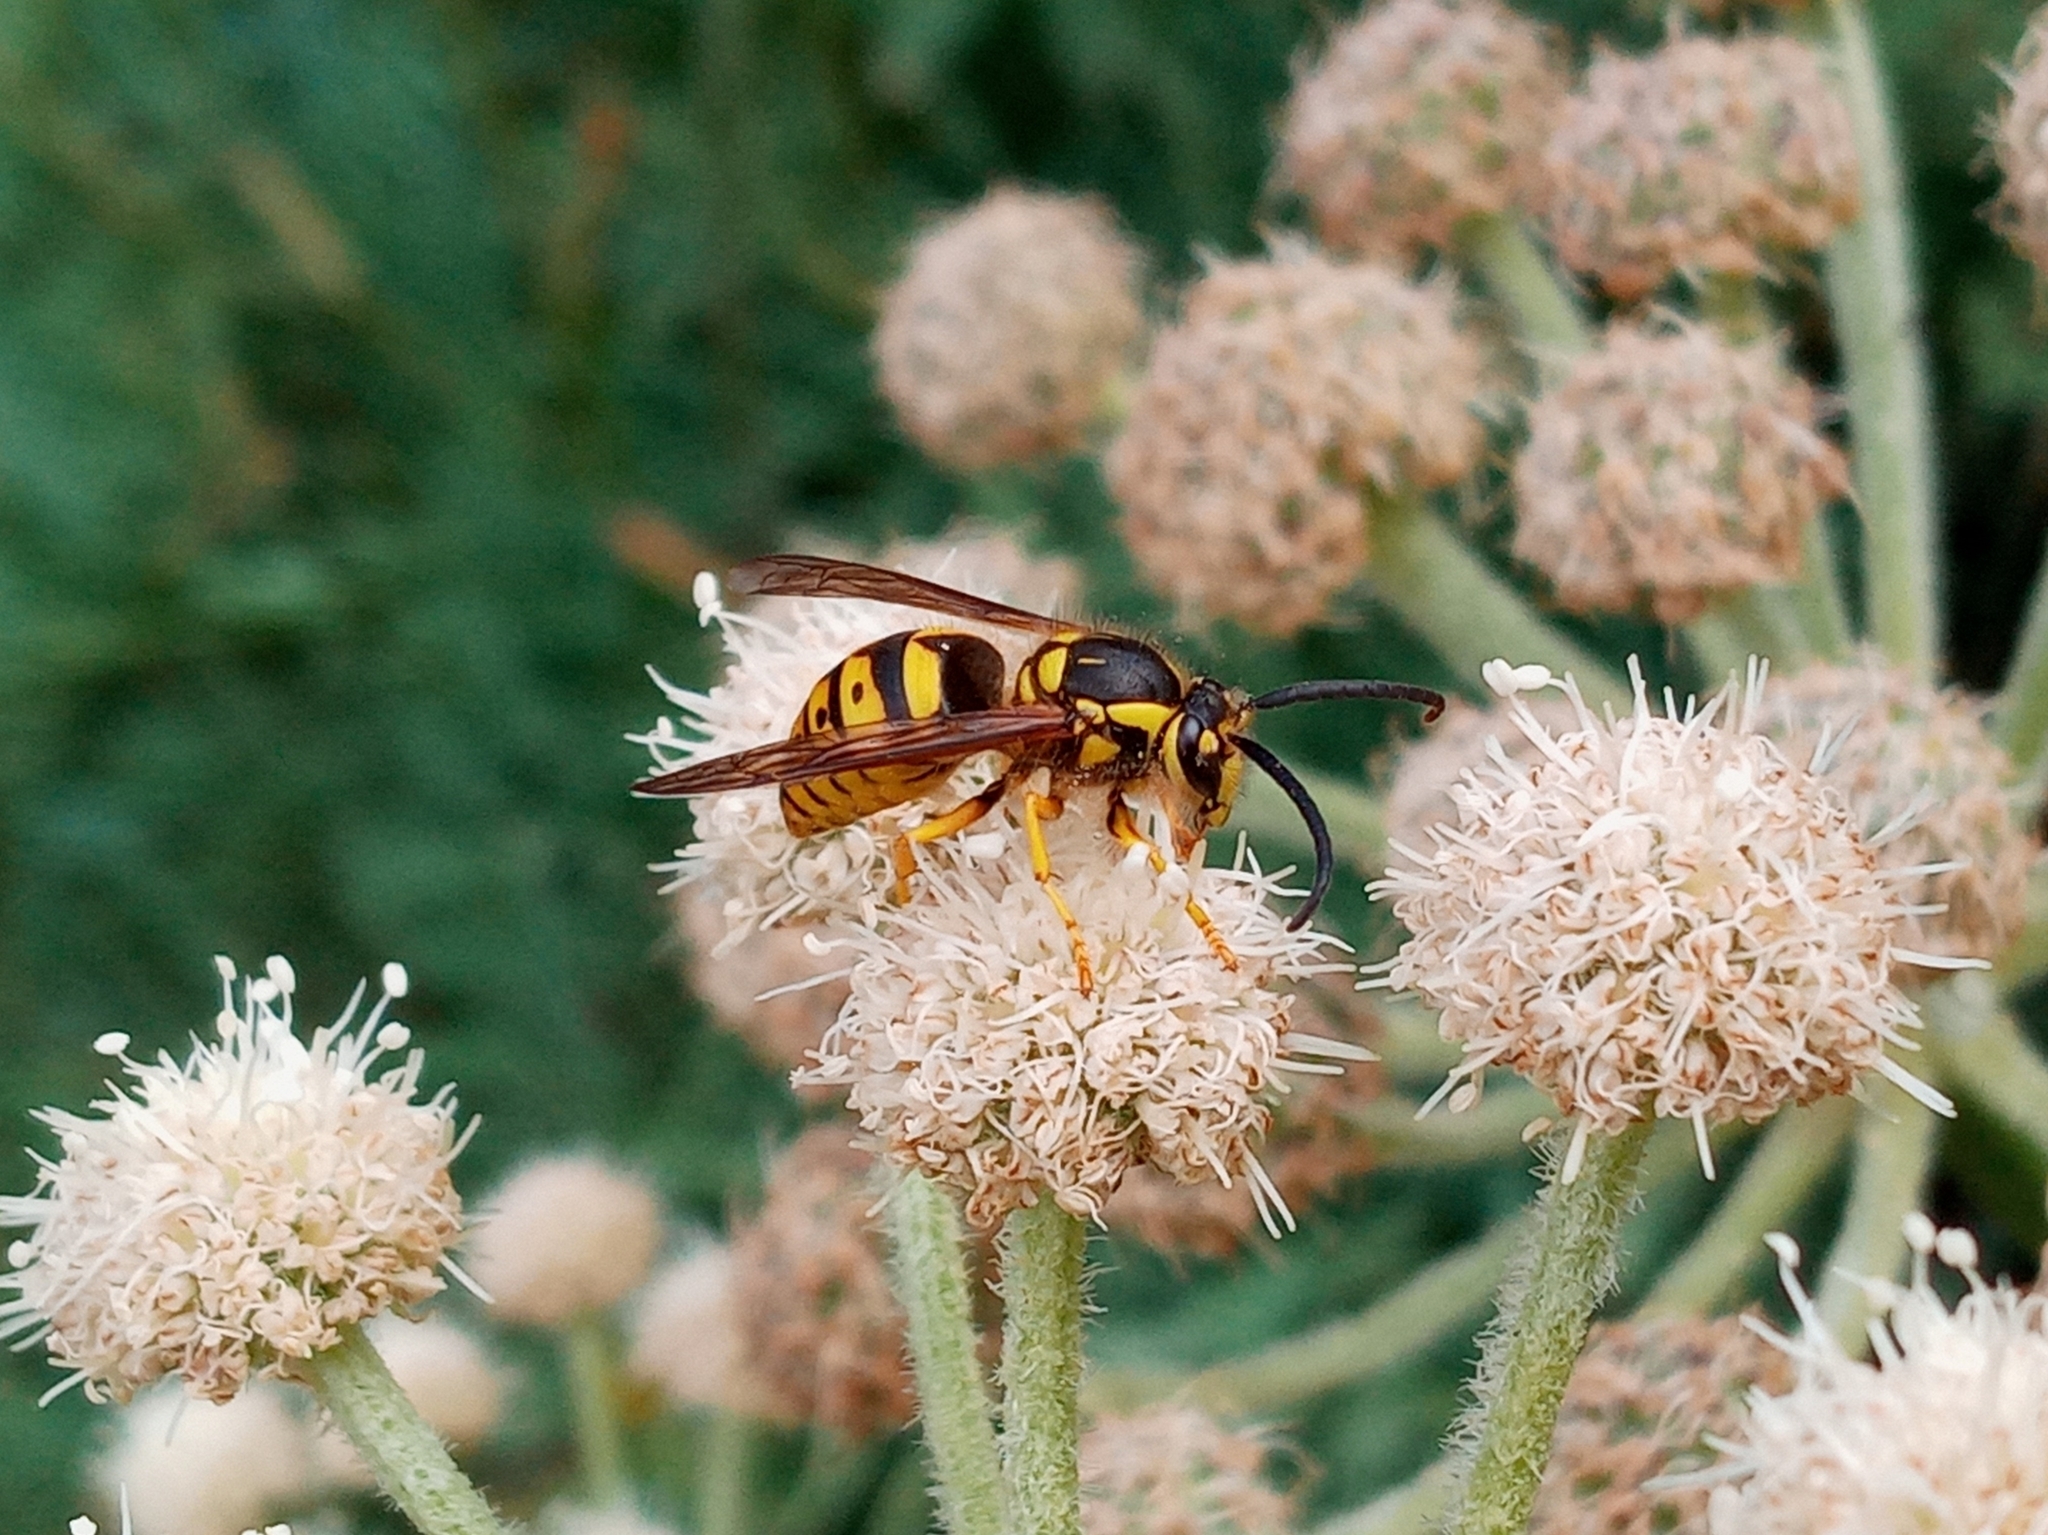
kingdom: Animalia
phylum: Arthropoda
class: Insecta
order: Hymenoptera
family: Vespidae
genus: Dolichovespula
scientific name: Dolichovespula arenaria
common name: Aerial yellowjacket
